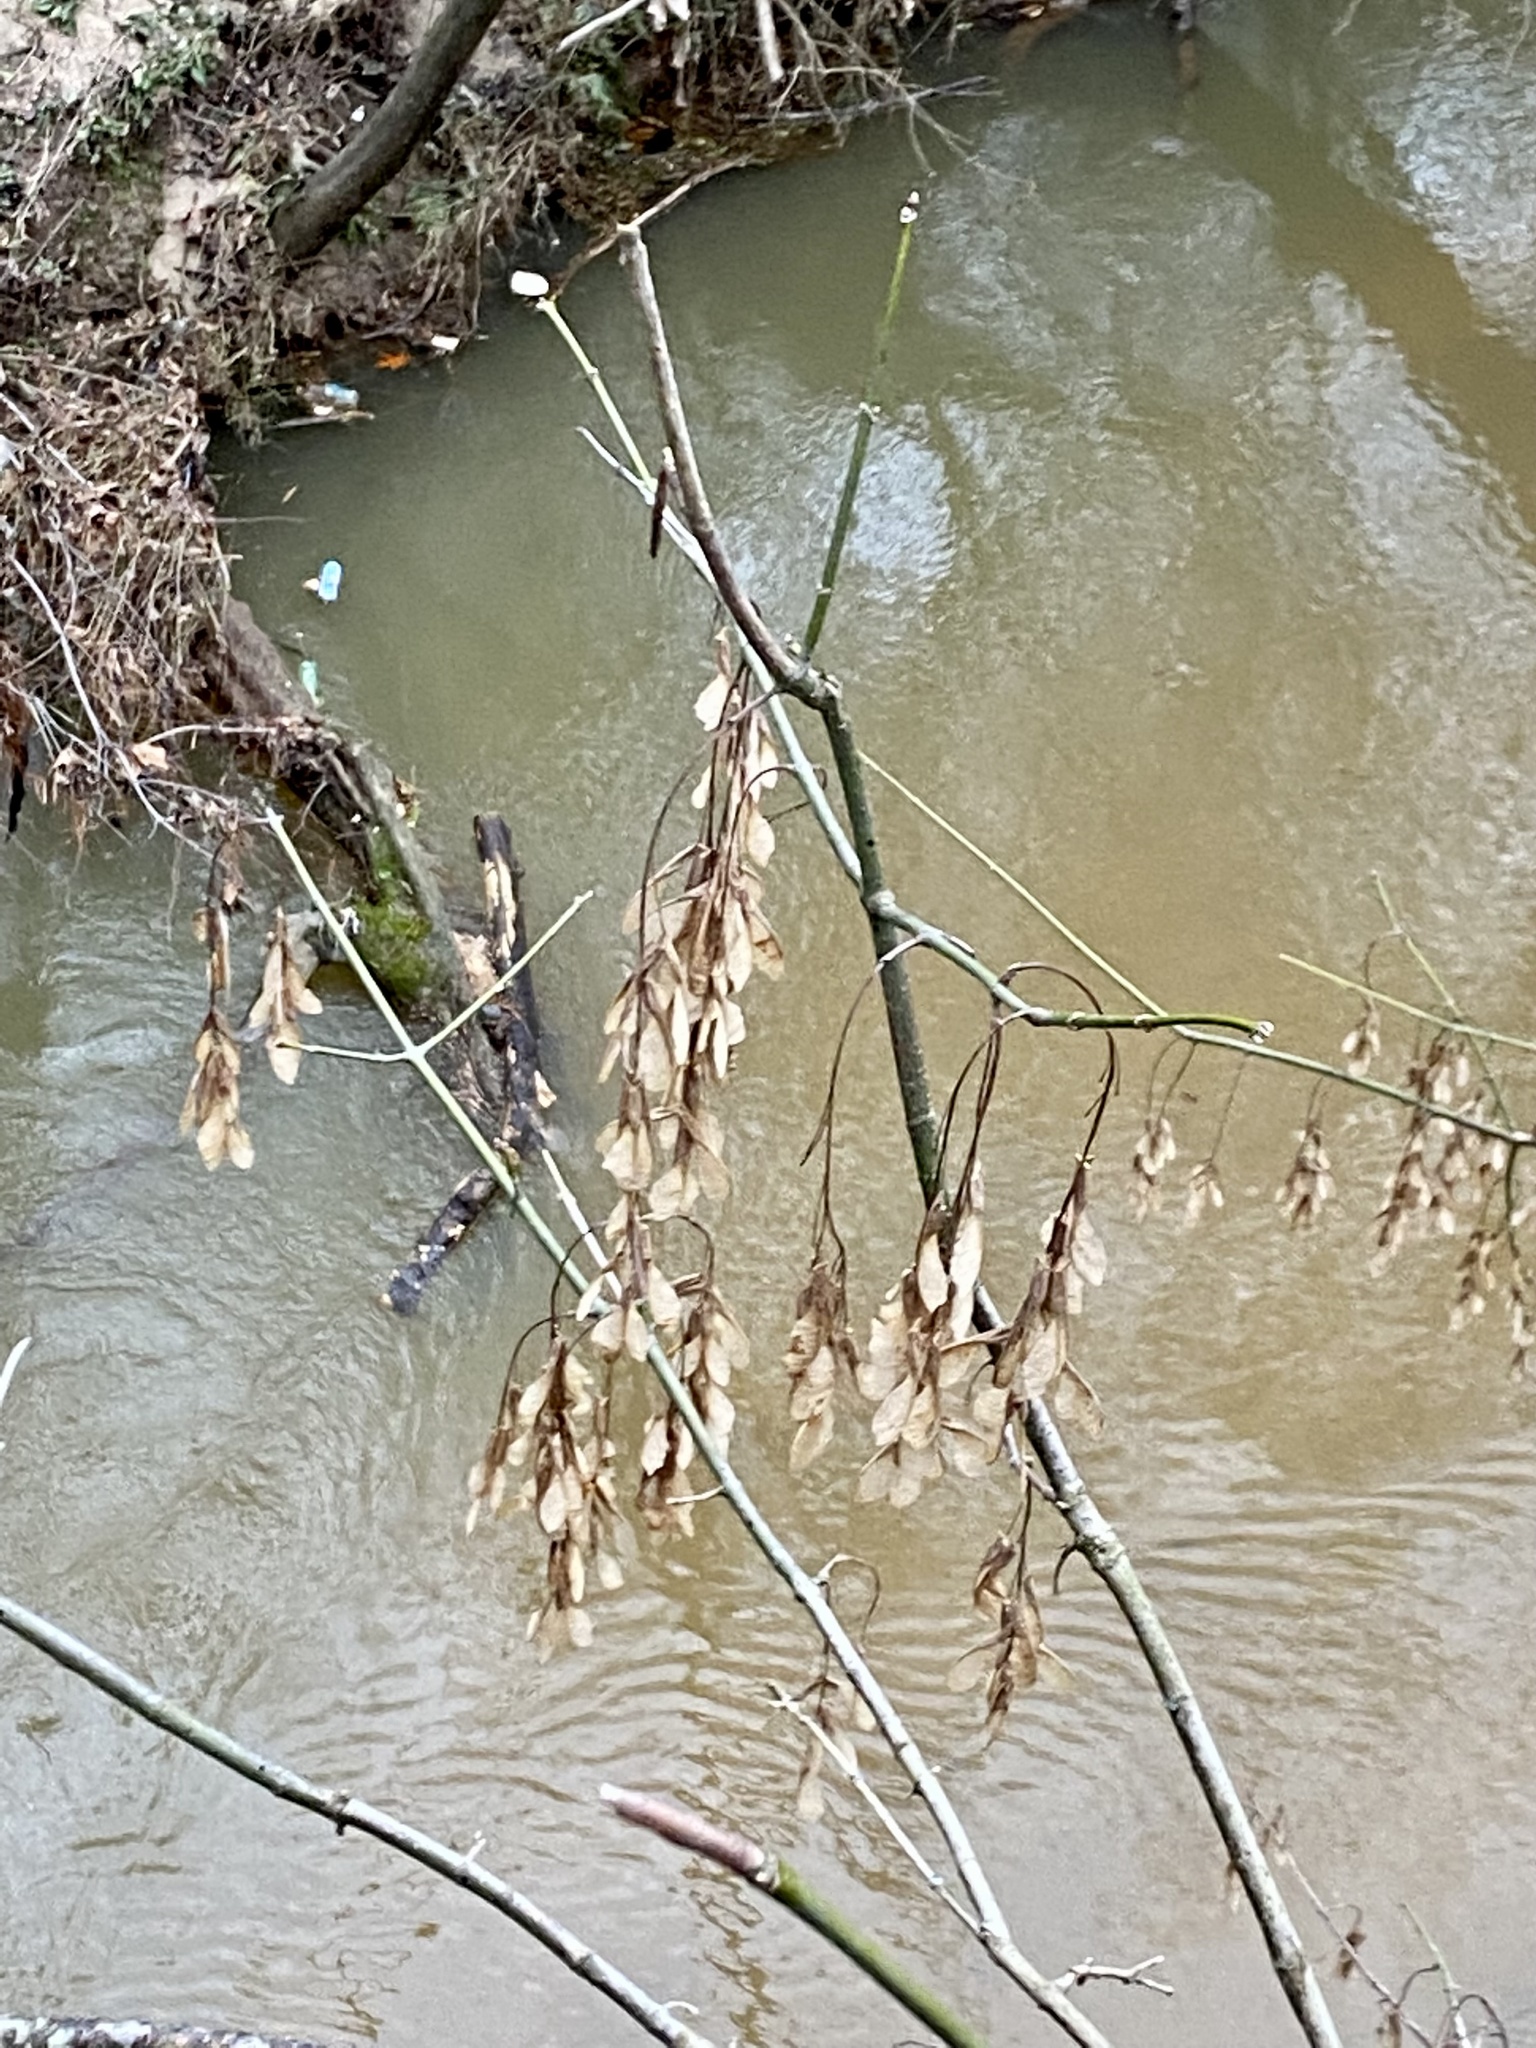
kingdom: Plantae
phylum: Tracheophyta
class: Magnoliopsida
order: Sapindales
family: Sapindaceae
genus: Acer
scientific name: Acer negundo
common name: Ashleaf maple
